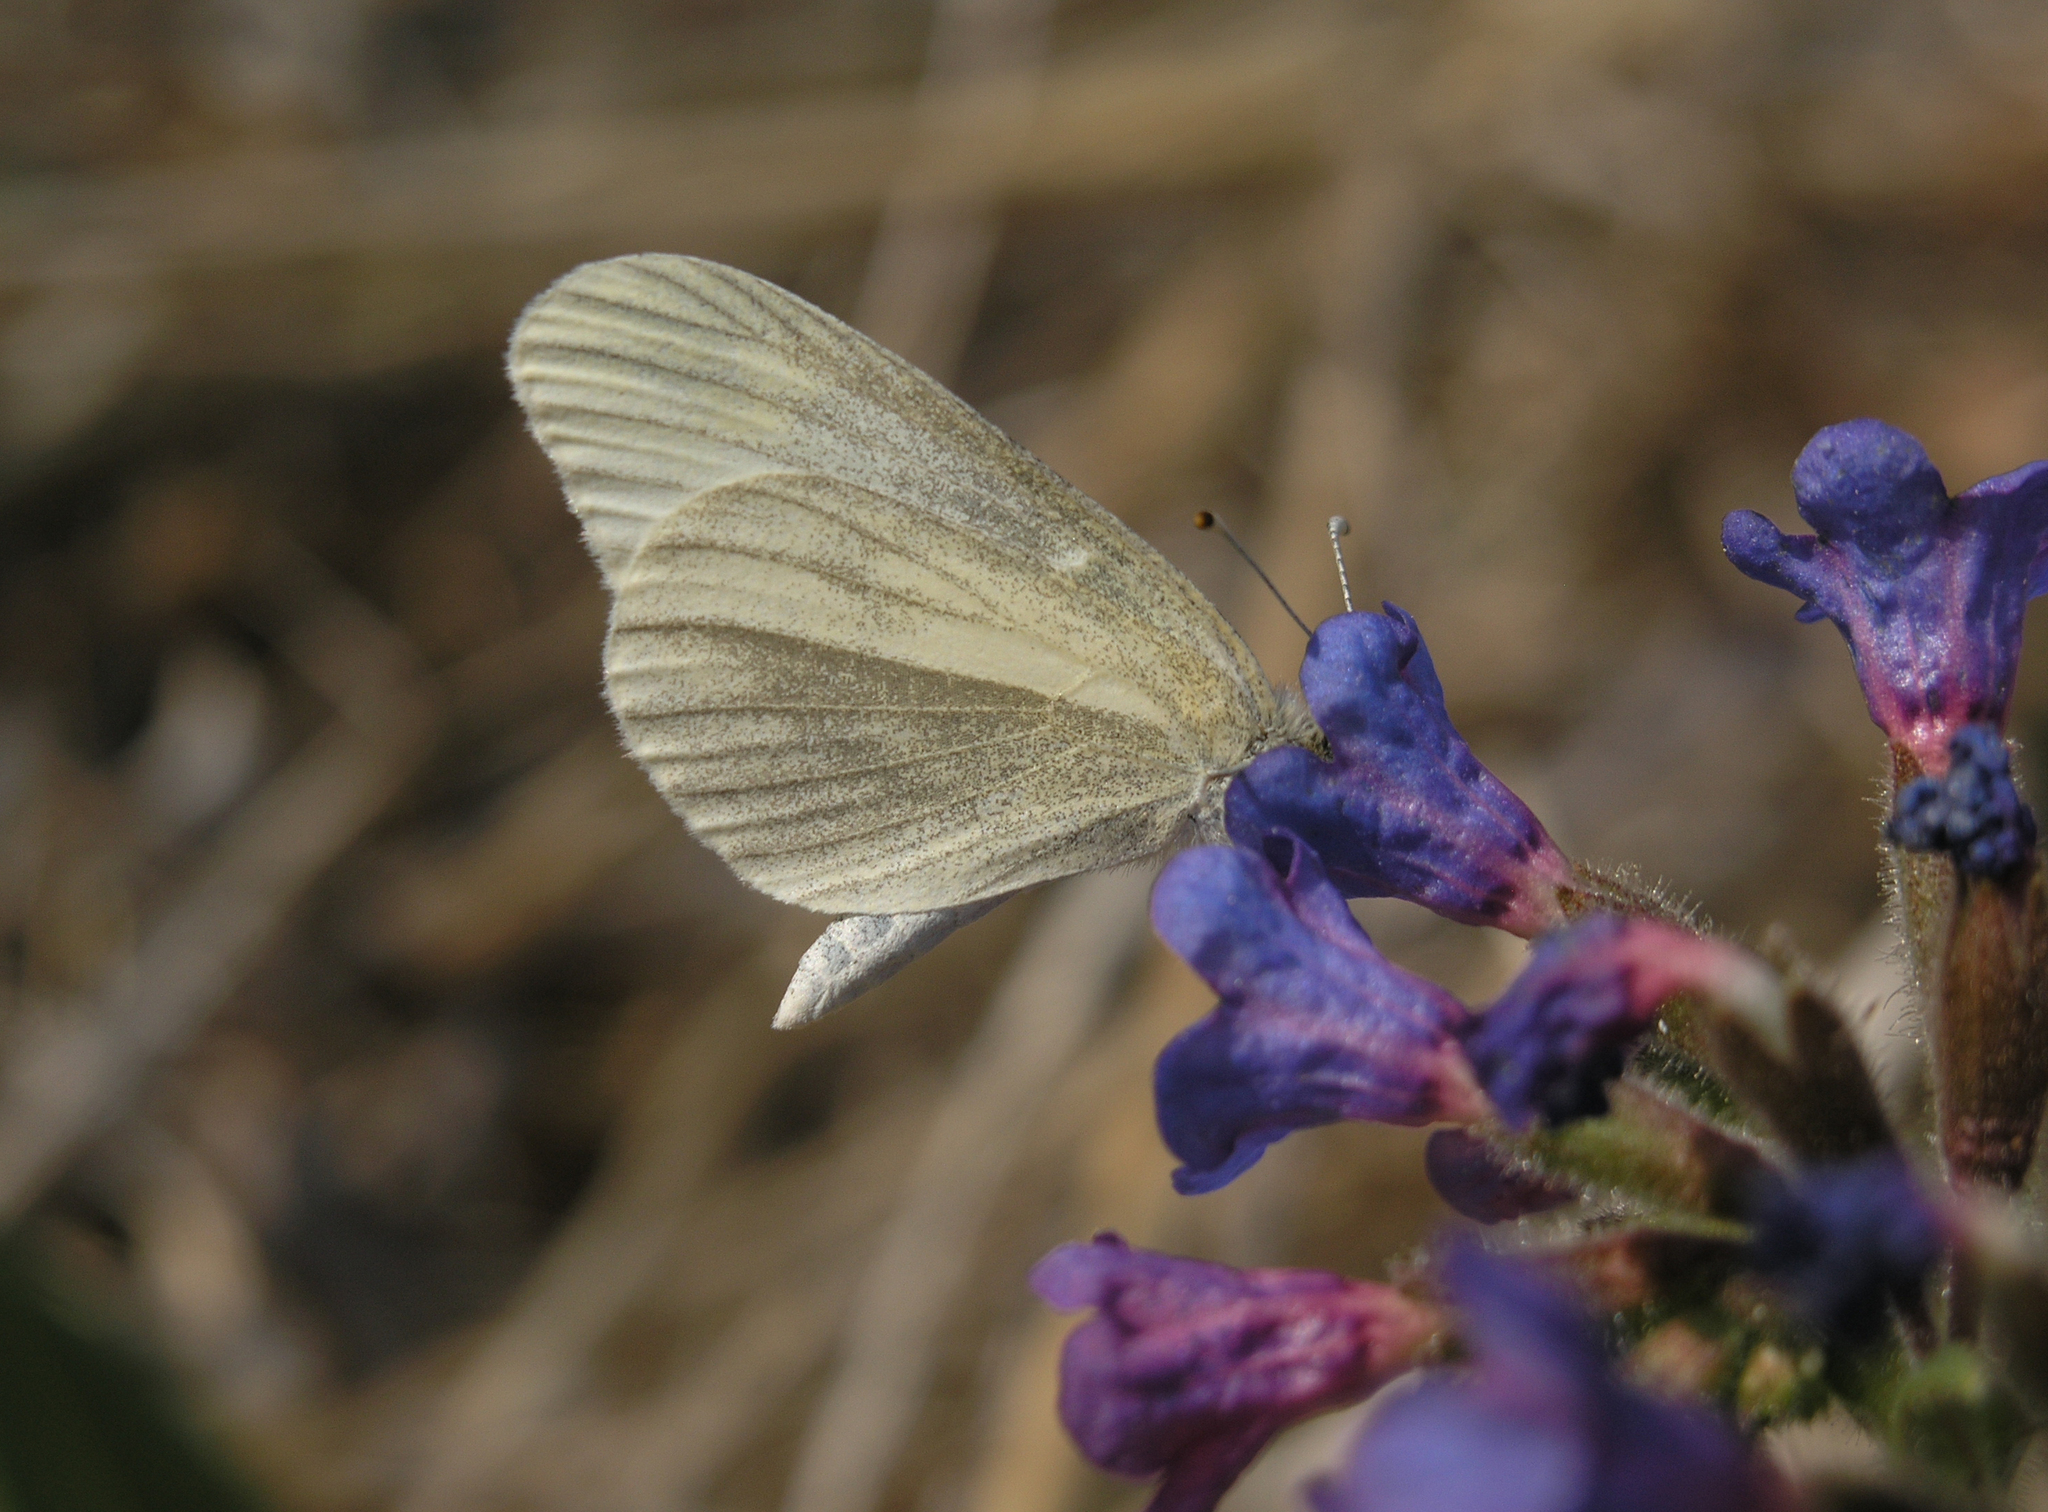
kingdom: Animalia
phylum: Arthropoda
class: Insecta
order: Lepidoptera
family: Pieridae
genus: Leptidea
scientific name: Leptidea amurensis
